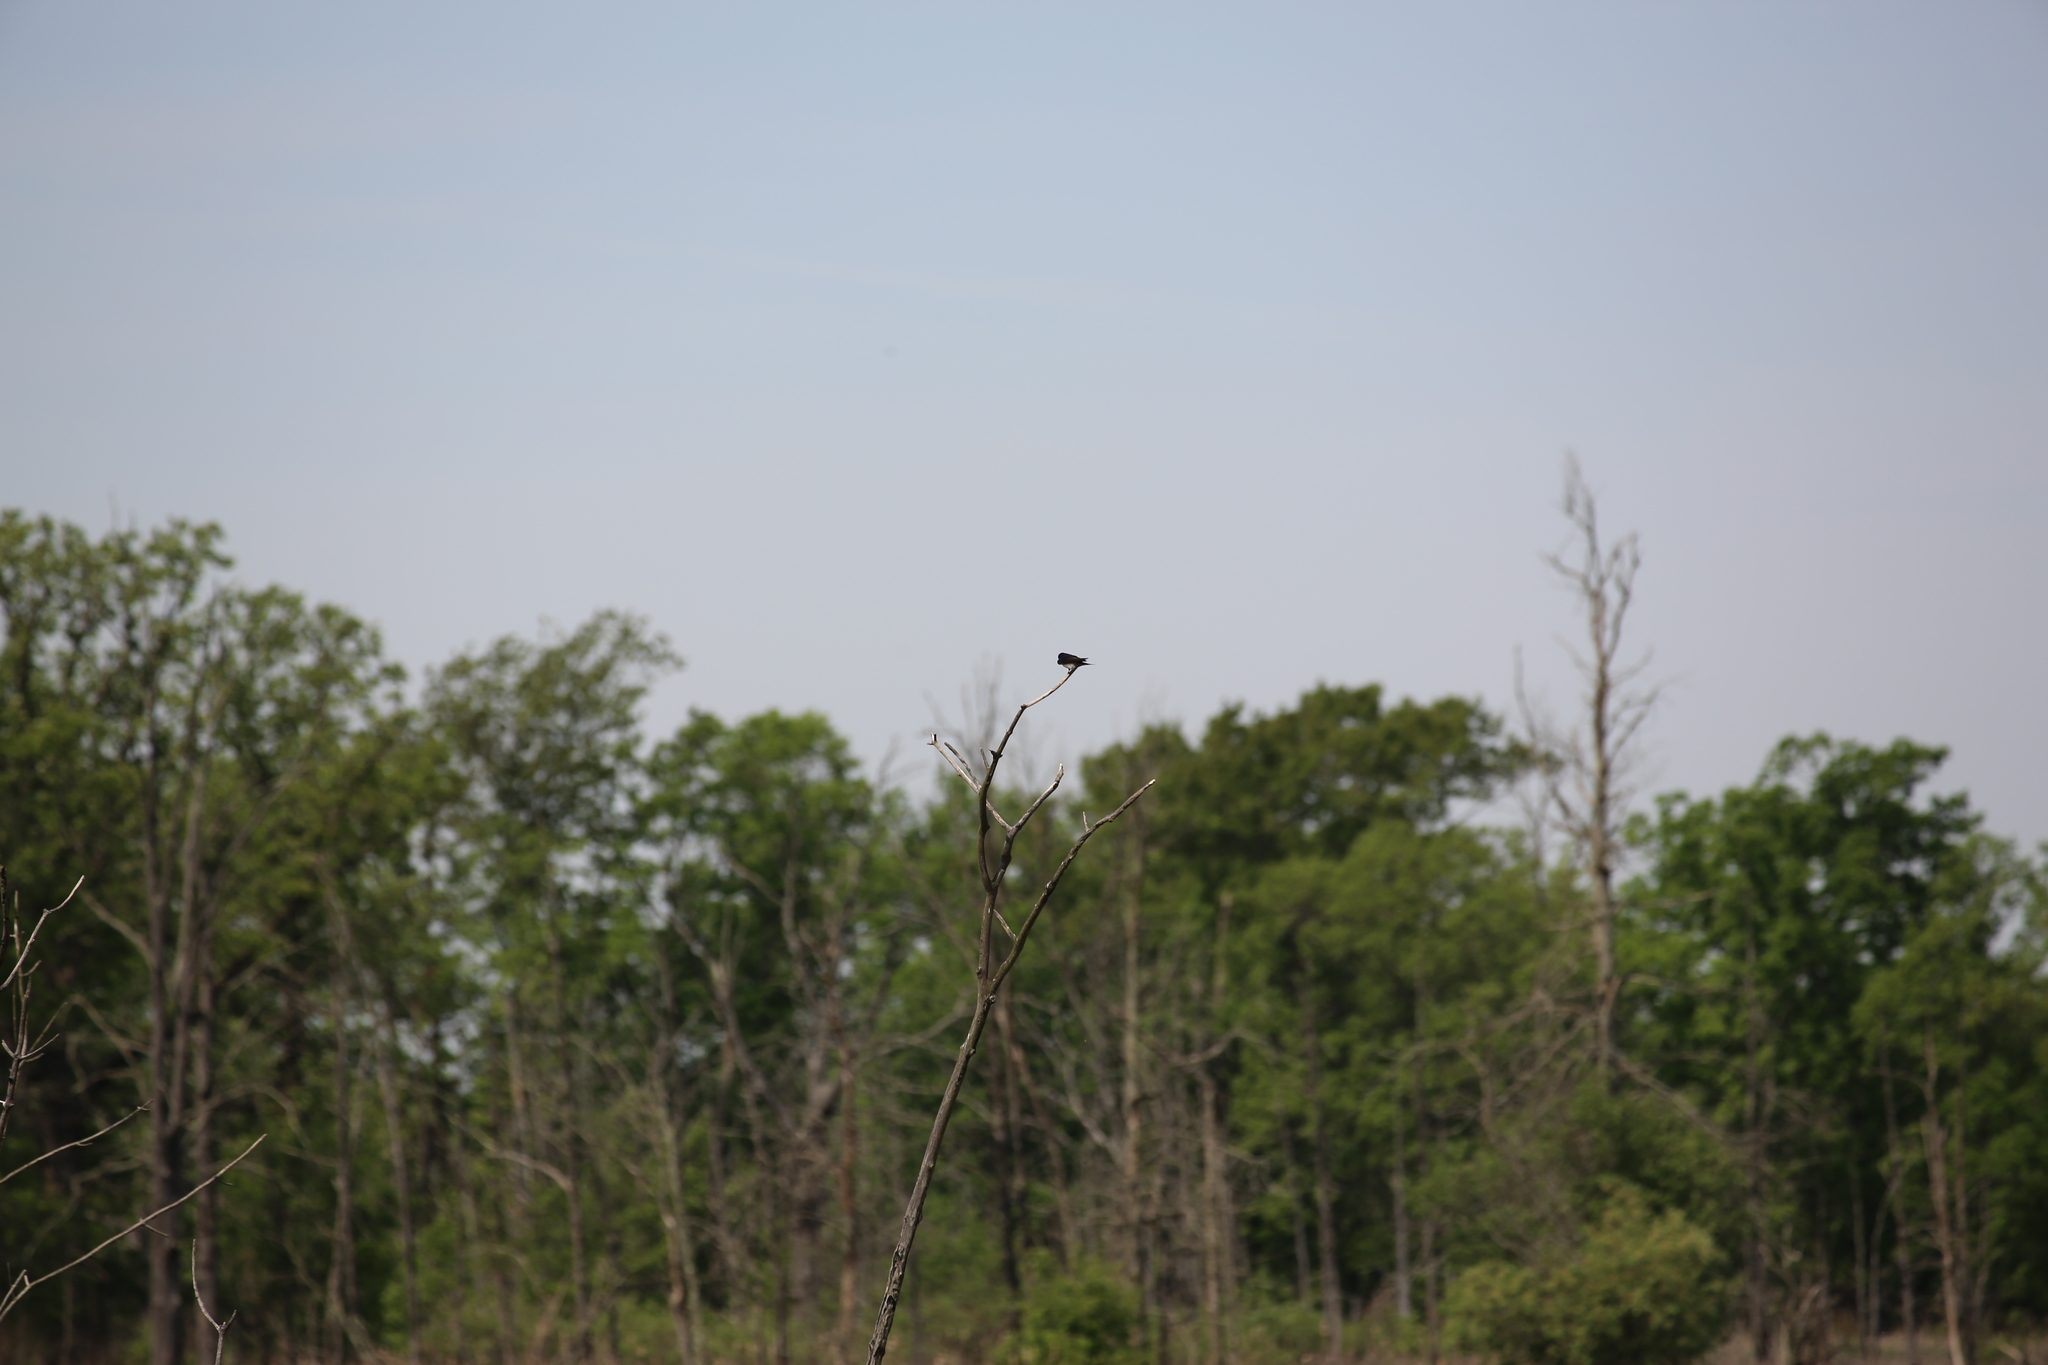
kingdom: Animalia
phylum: Chordata
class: Aves
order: Passeriformes
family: Hirundinidae
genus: Tachycineta
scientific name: Tachycineta bicolor
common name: Tree swallow
